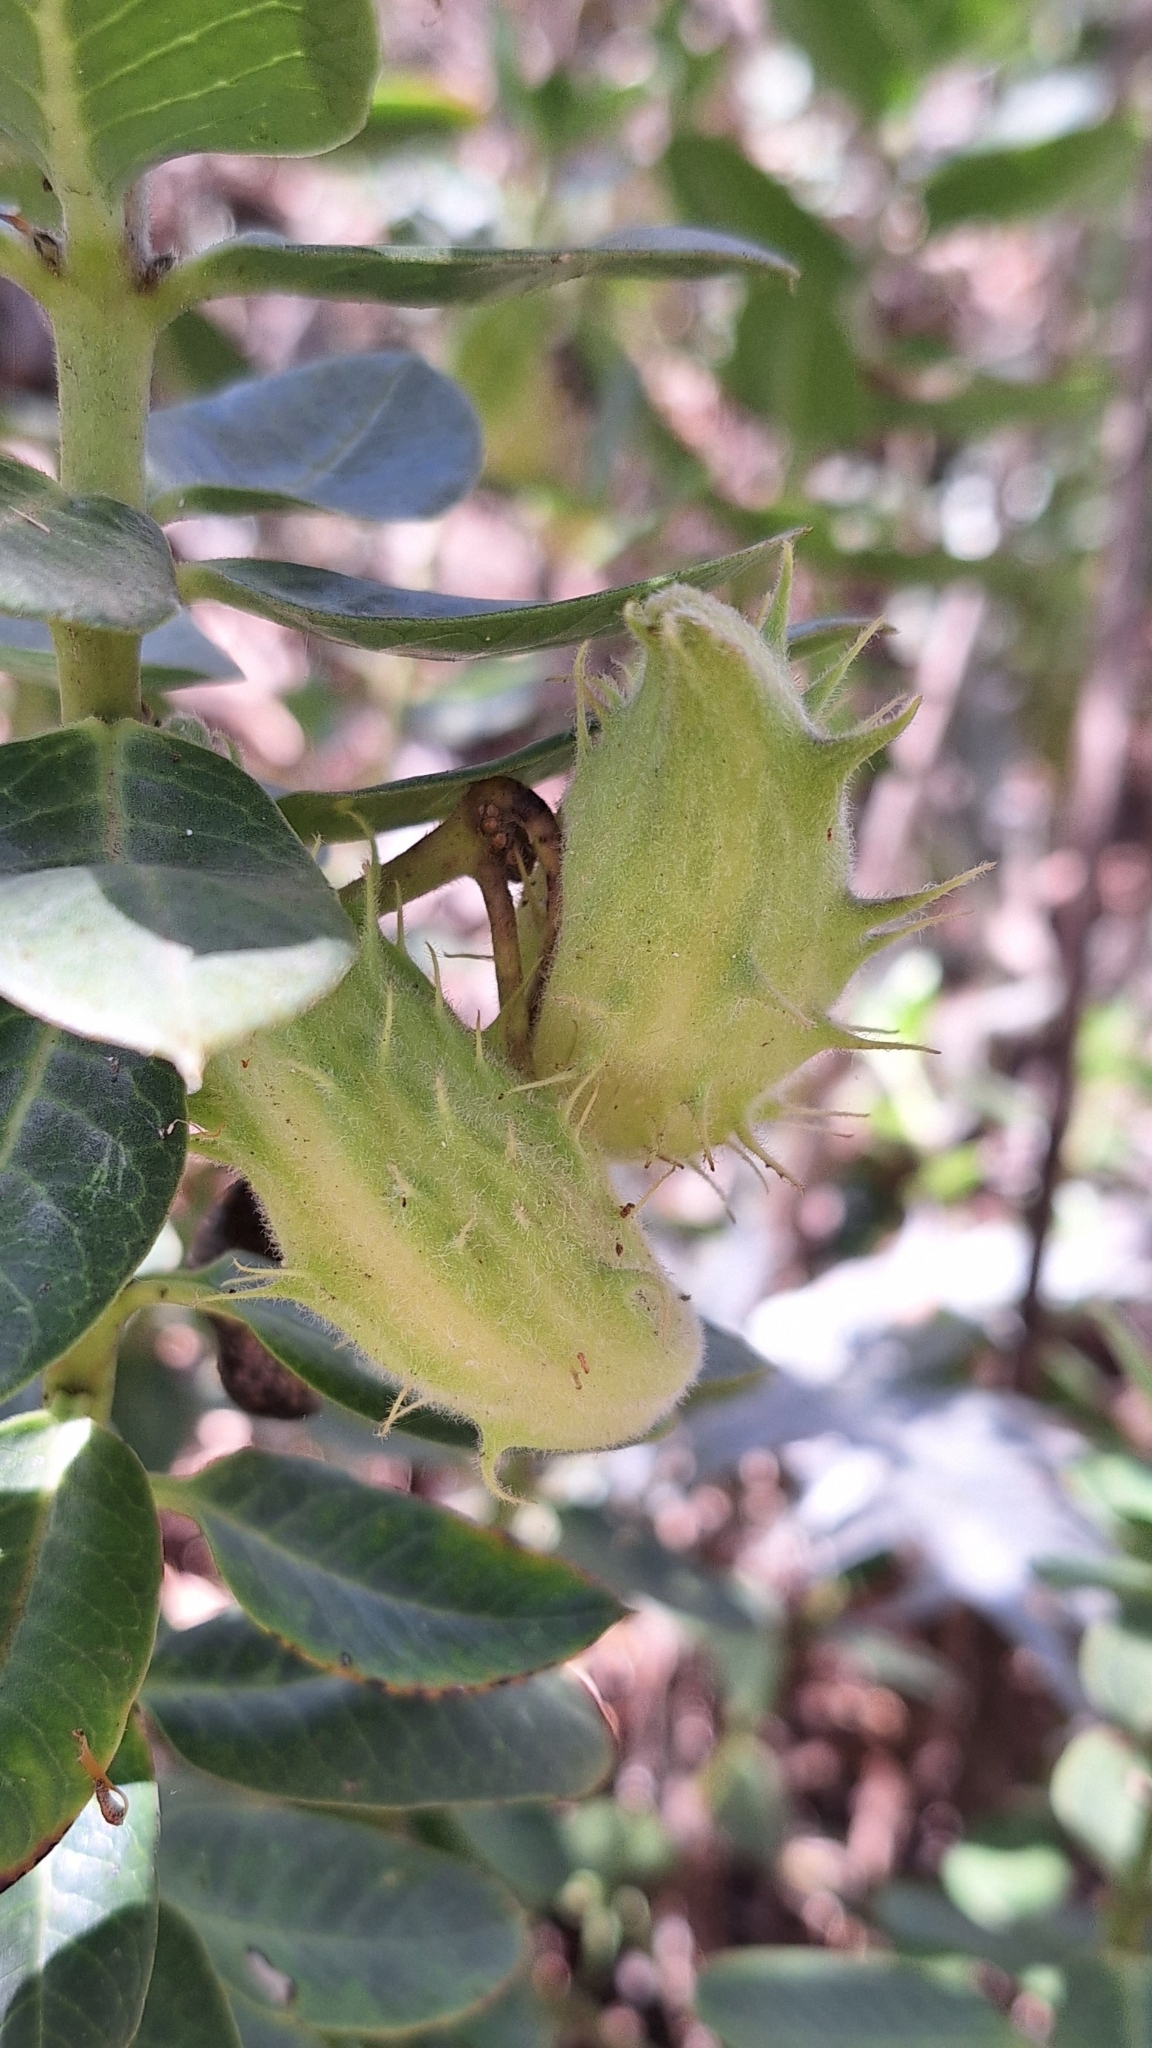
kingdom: Plantae
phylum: Tracheophyta
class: Magnoliopsida
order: Gentianales
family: Apocynaceae
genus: Gomphocarpus
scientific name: Gomphocarpus cancellatus
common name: Wild cotton
